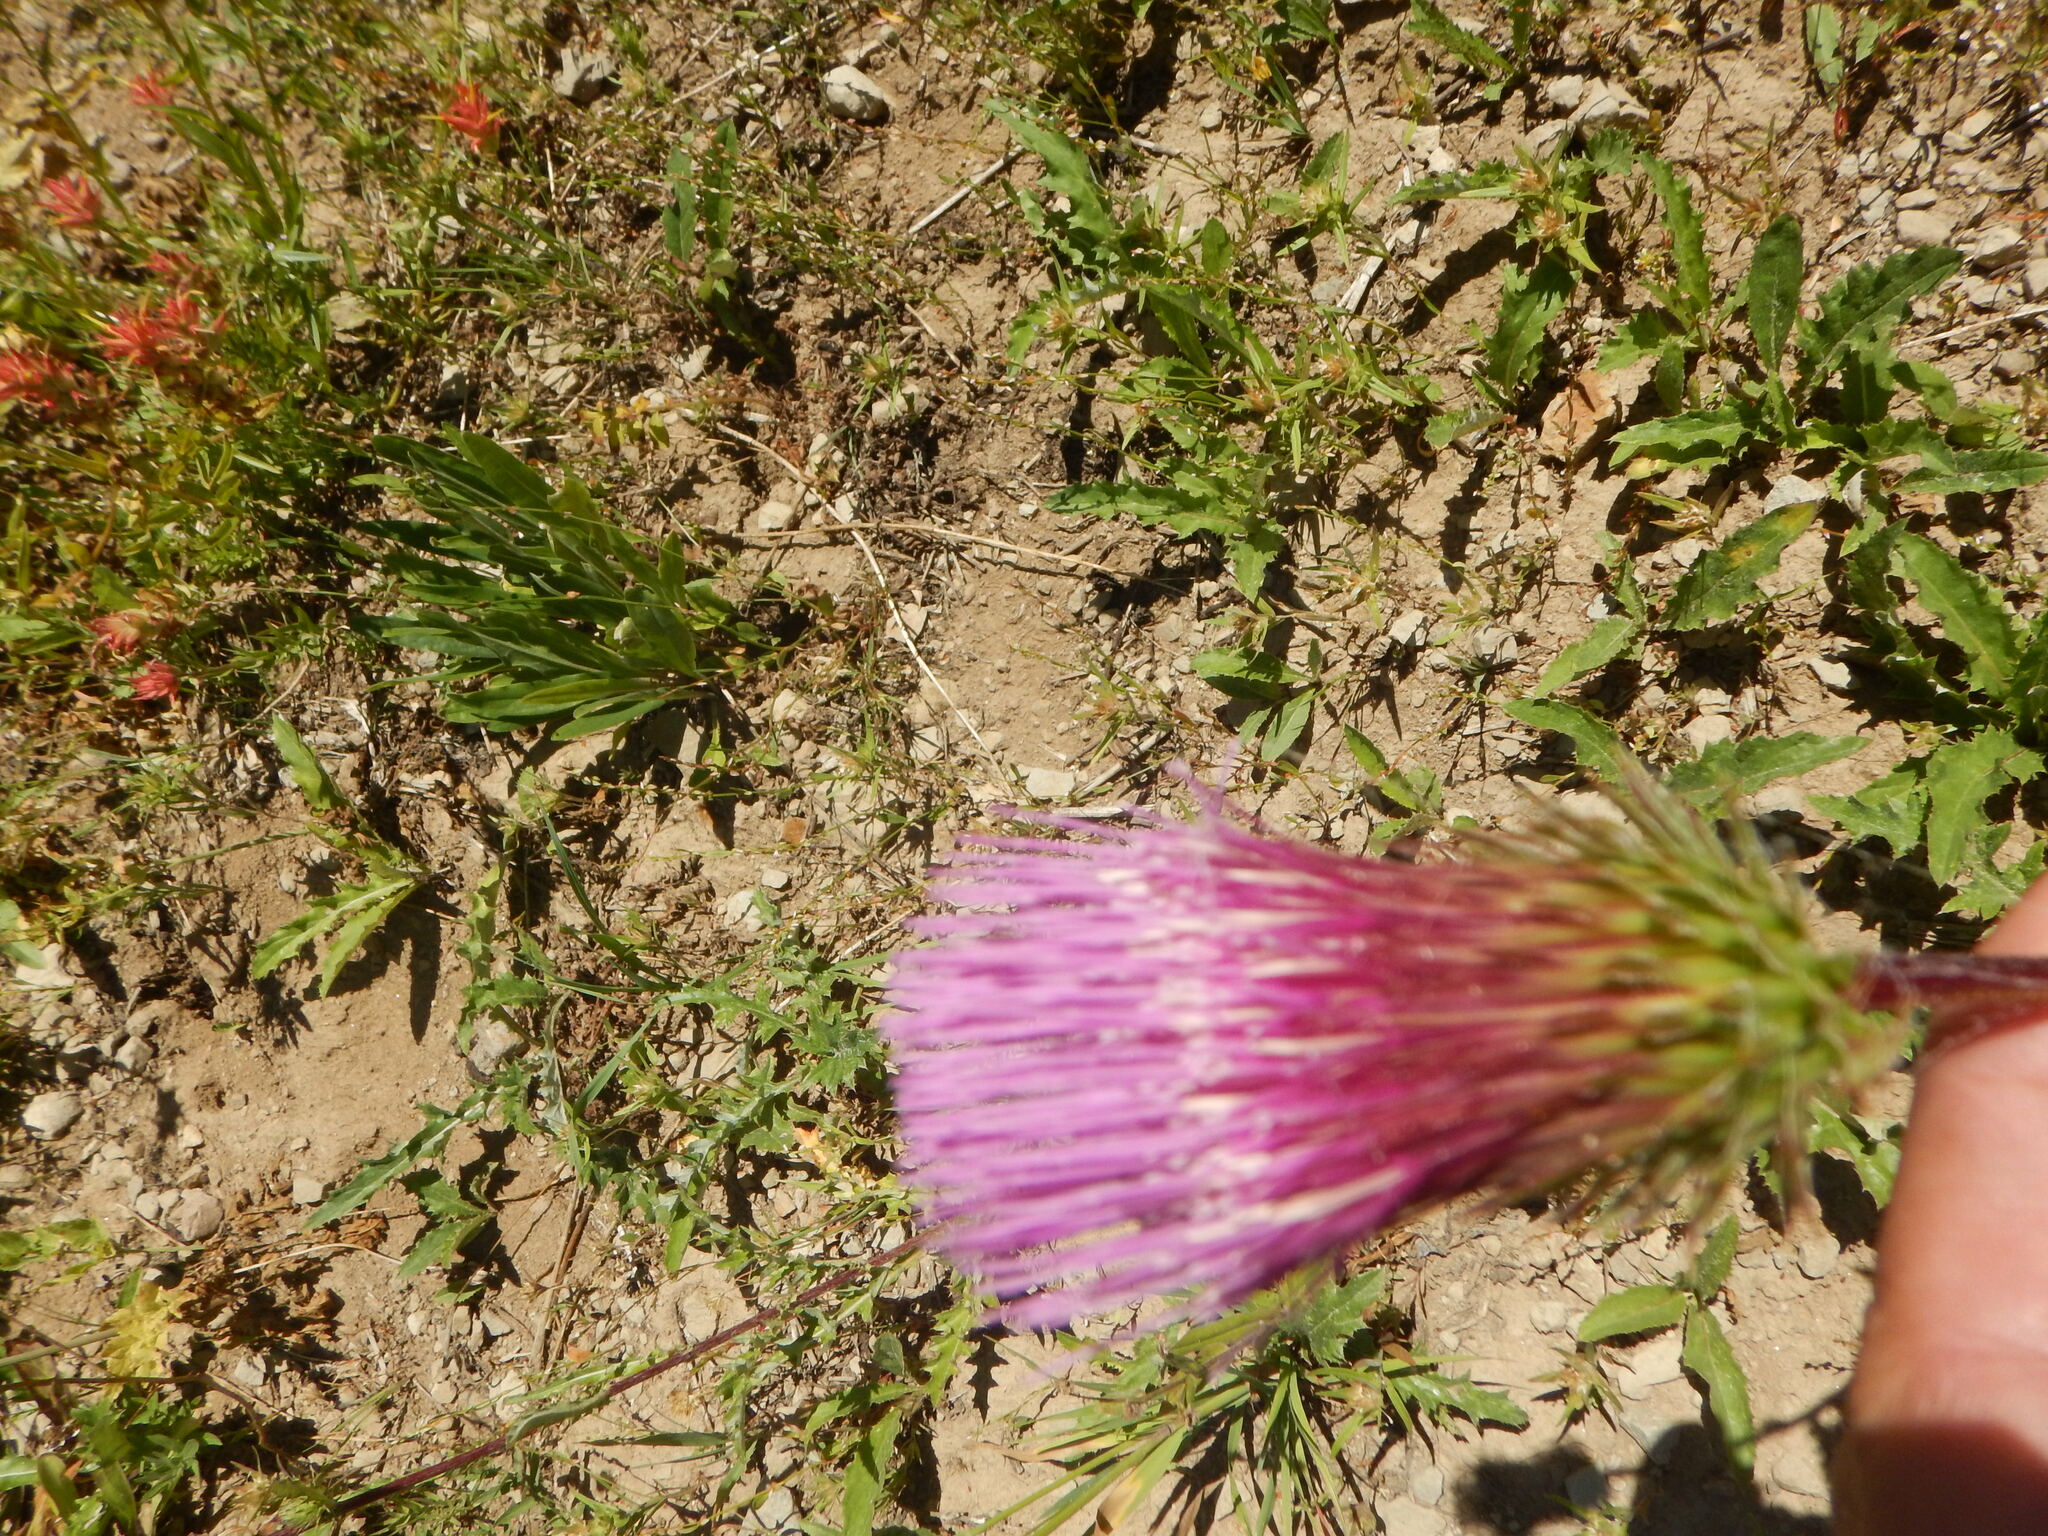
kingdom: Plantae
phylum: Tracheophyta
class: Magnoliopsida
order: Asterales
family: Asteraceae
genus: Cirsium
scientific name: Cirsium andersonii
